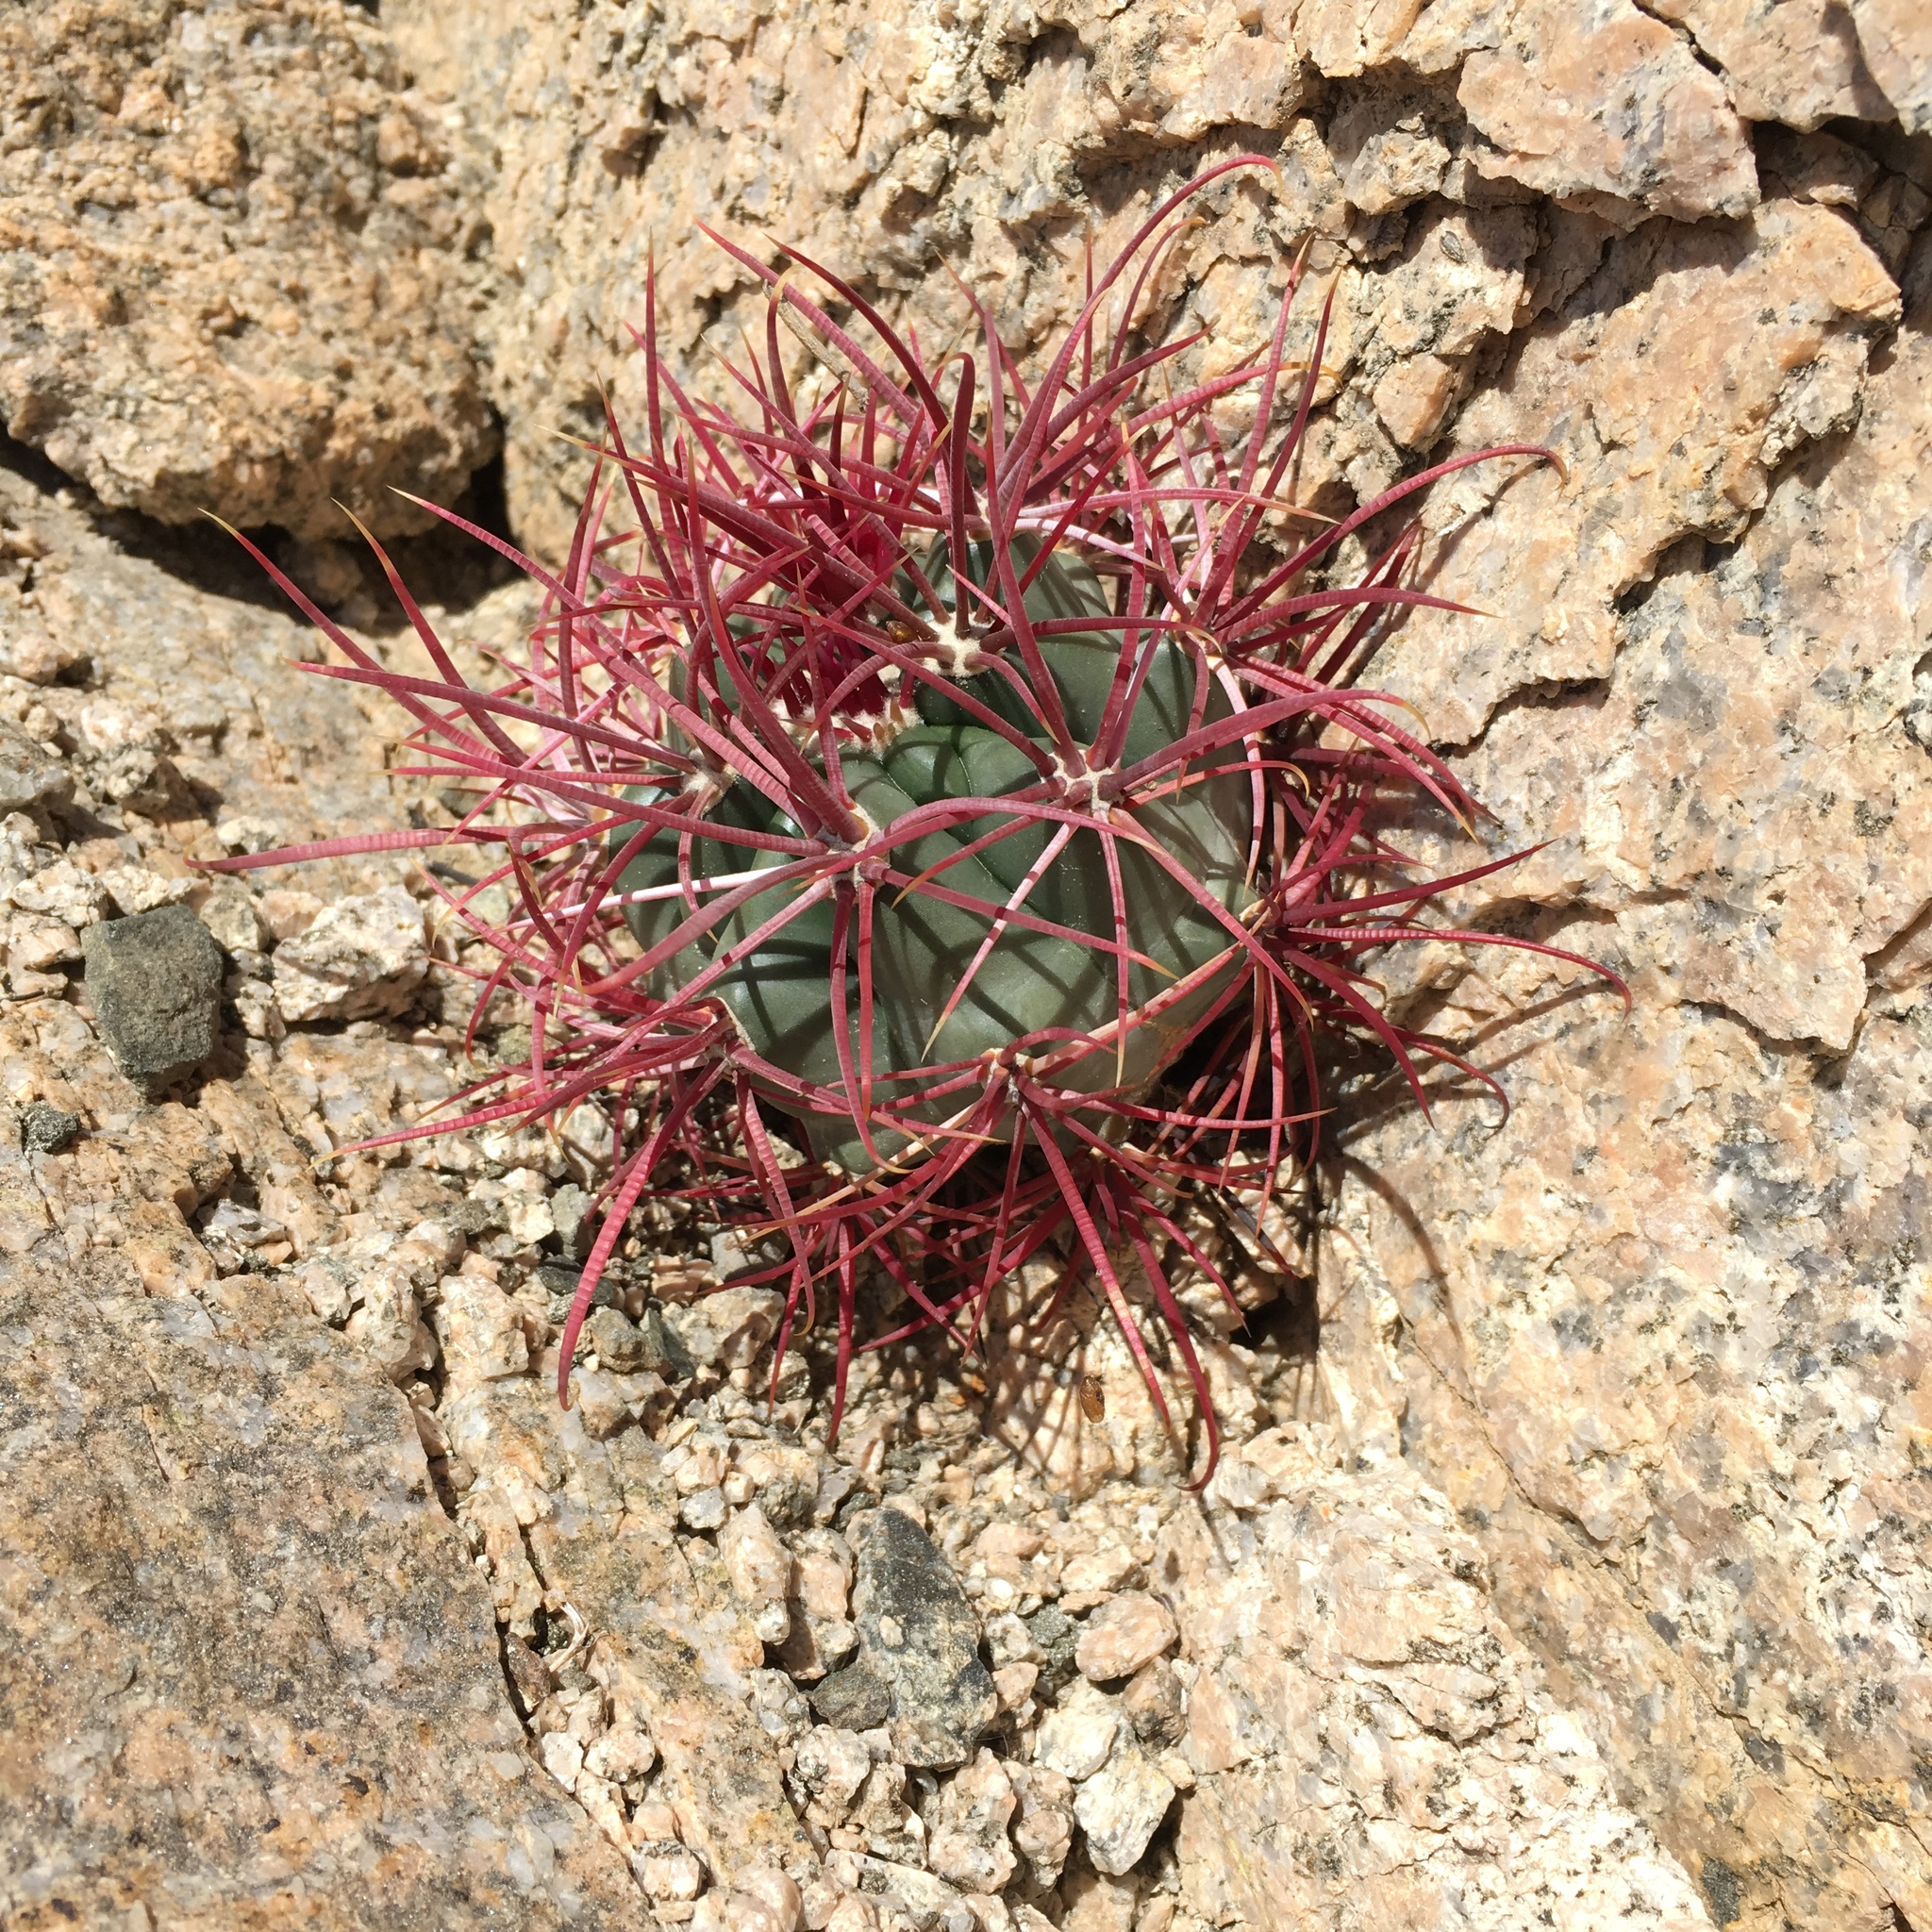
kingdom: Plantae
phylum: Tracheophyta
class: Magnoliopsida
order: Caryophyllales
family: Cactaceae
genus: Ferocactus
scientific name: Ferocactus cylindraceus
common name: California barrel cactus
